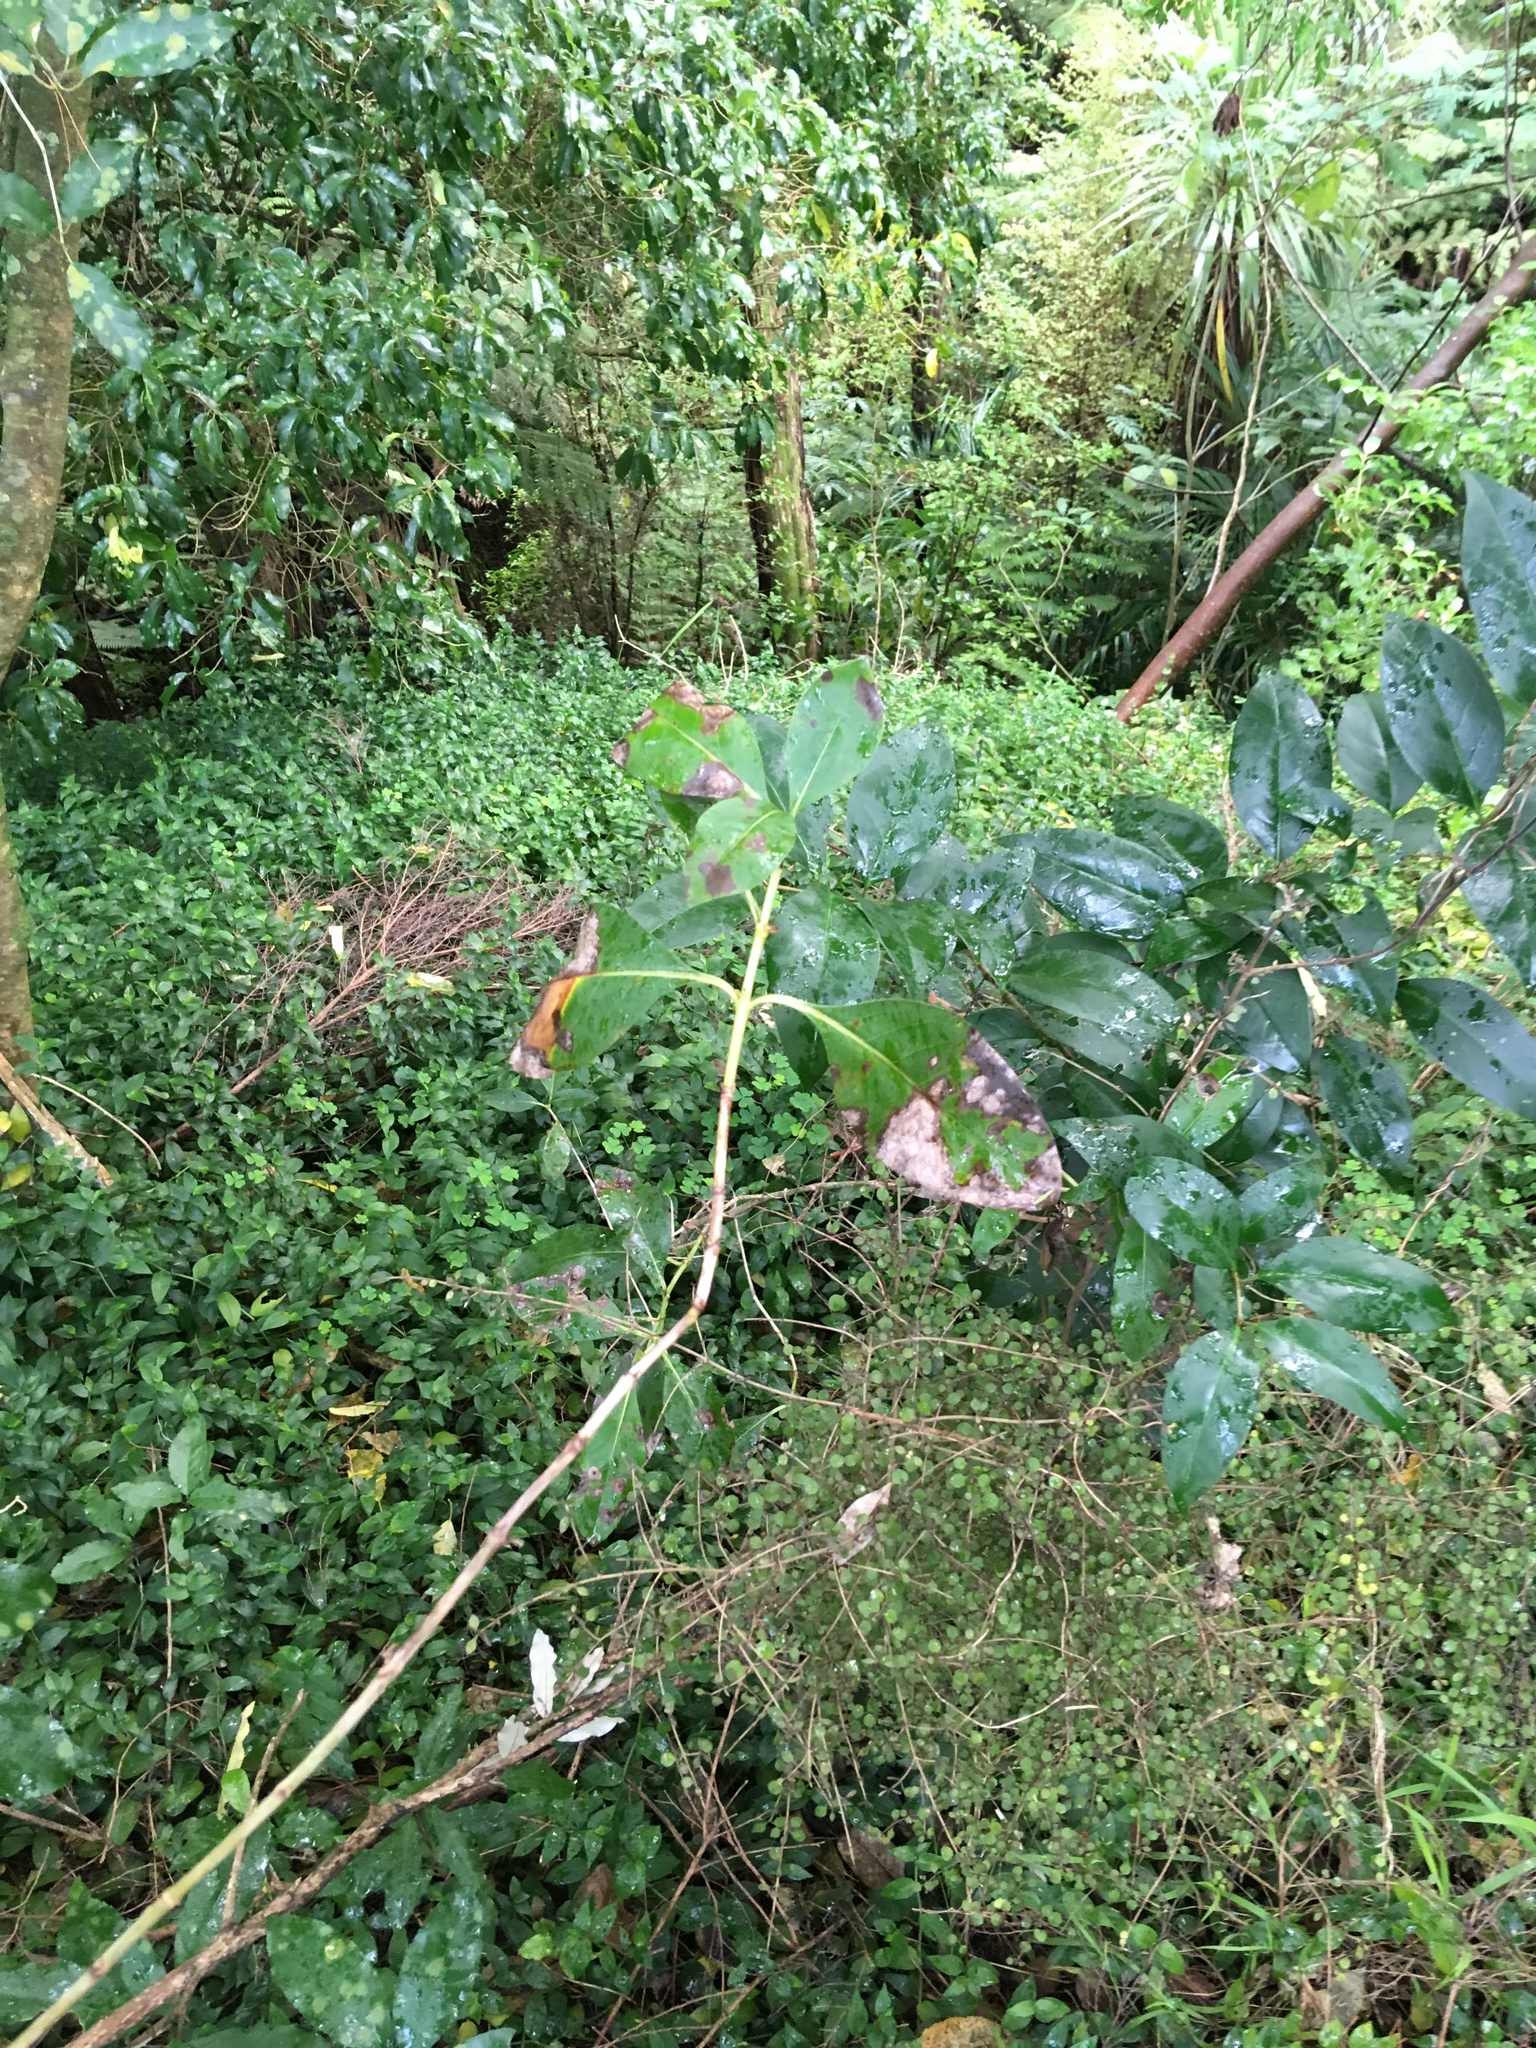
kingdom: Plantae
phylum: Tracheophyta
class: Magnoliopsida
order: Lamiales
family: Oleaceae
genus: Ligustrum
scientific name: Ligustrum lucidum
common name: Glossy privet
